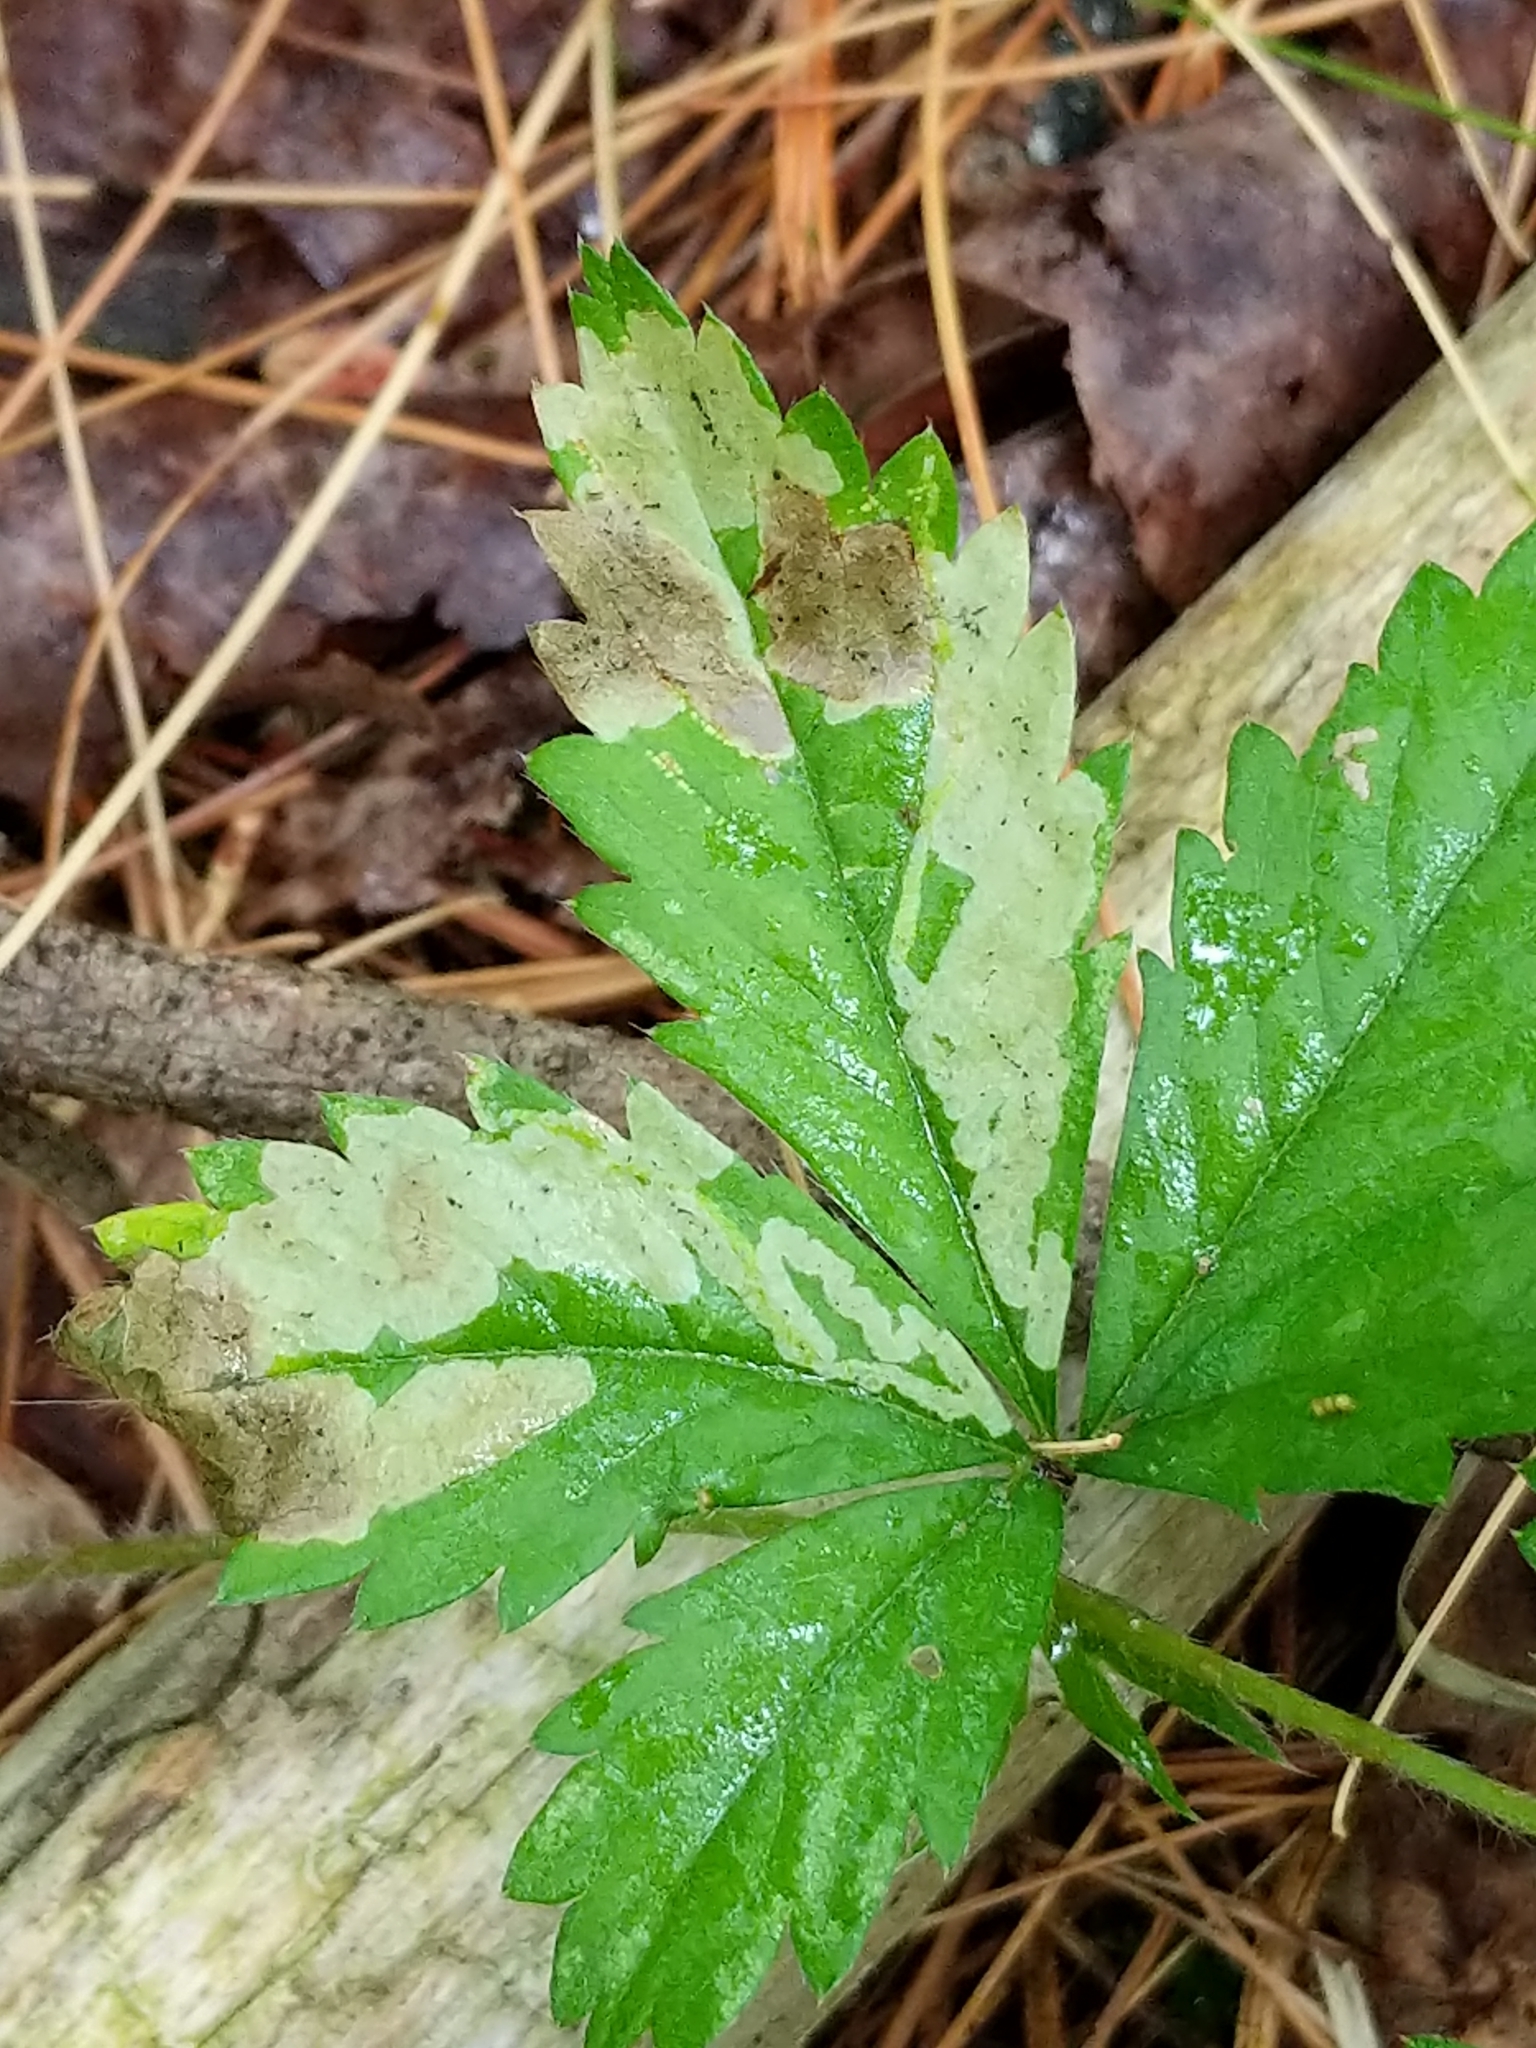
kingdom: Animalia
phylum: Arthropoda
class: Insecta
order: Diptera
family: Agromyzidae
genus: Agromyza
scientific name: Agromyza idaeiana
